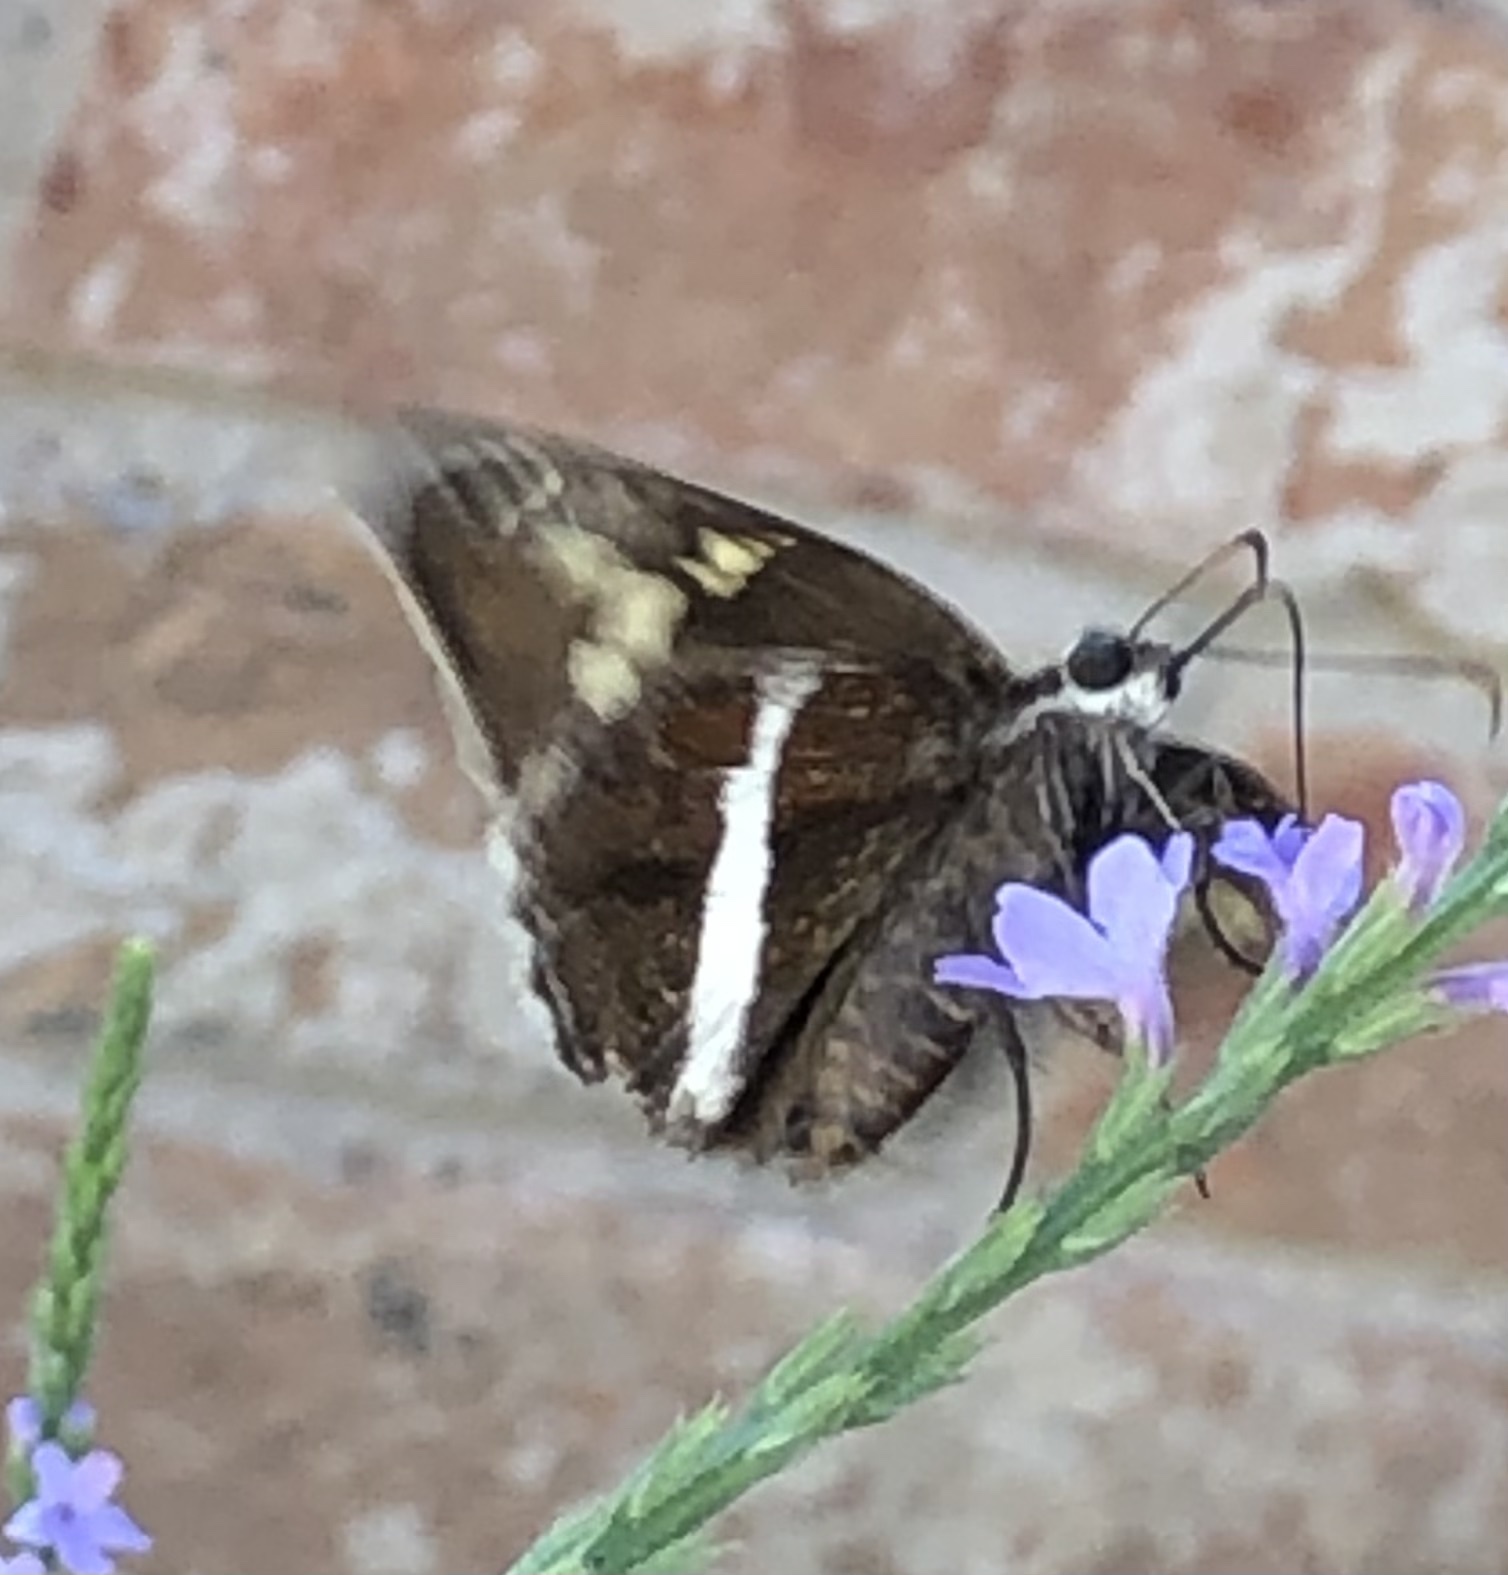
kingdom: Animalia
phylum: Arthropoda
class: Insecta
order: Lepidoptera
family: Hesperiidae
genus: Chioides
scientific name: Chioides catillus
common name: Silverbanded skipper
